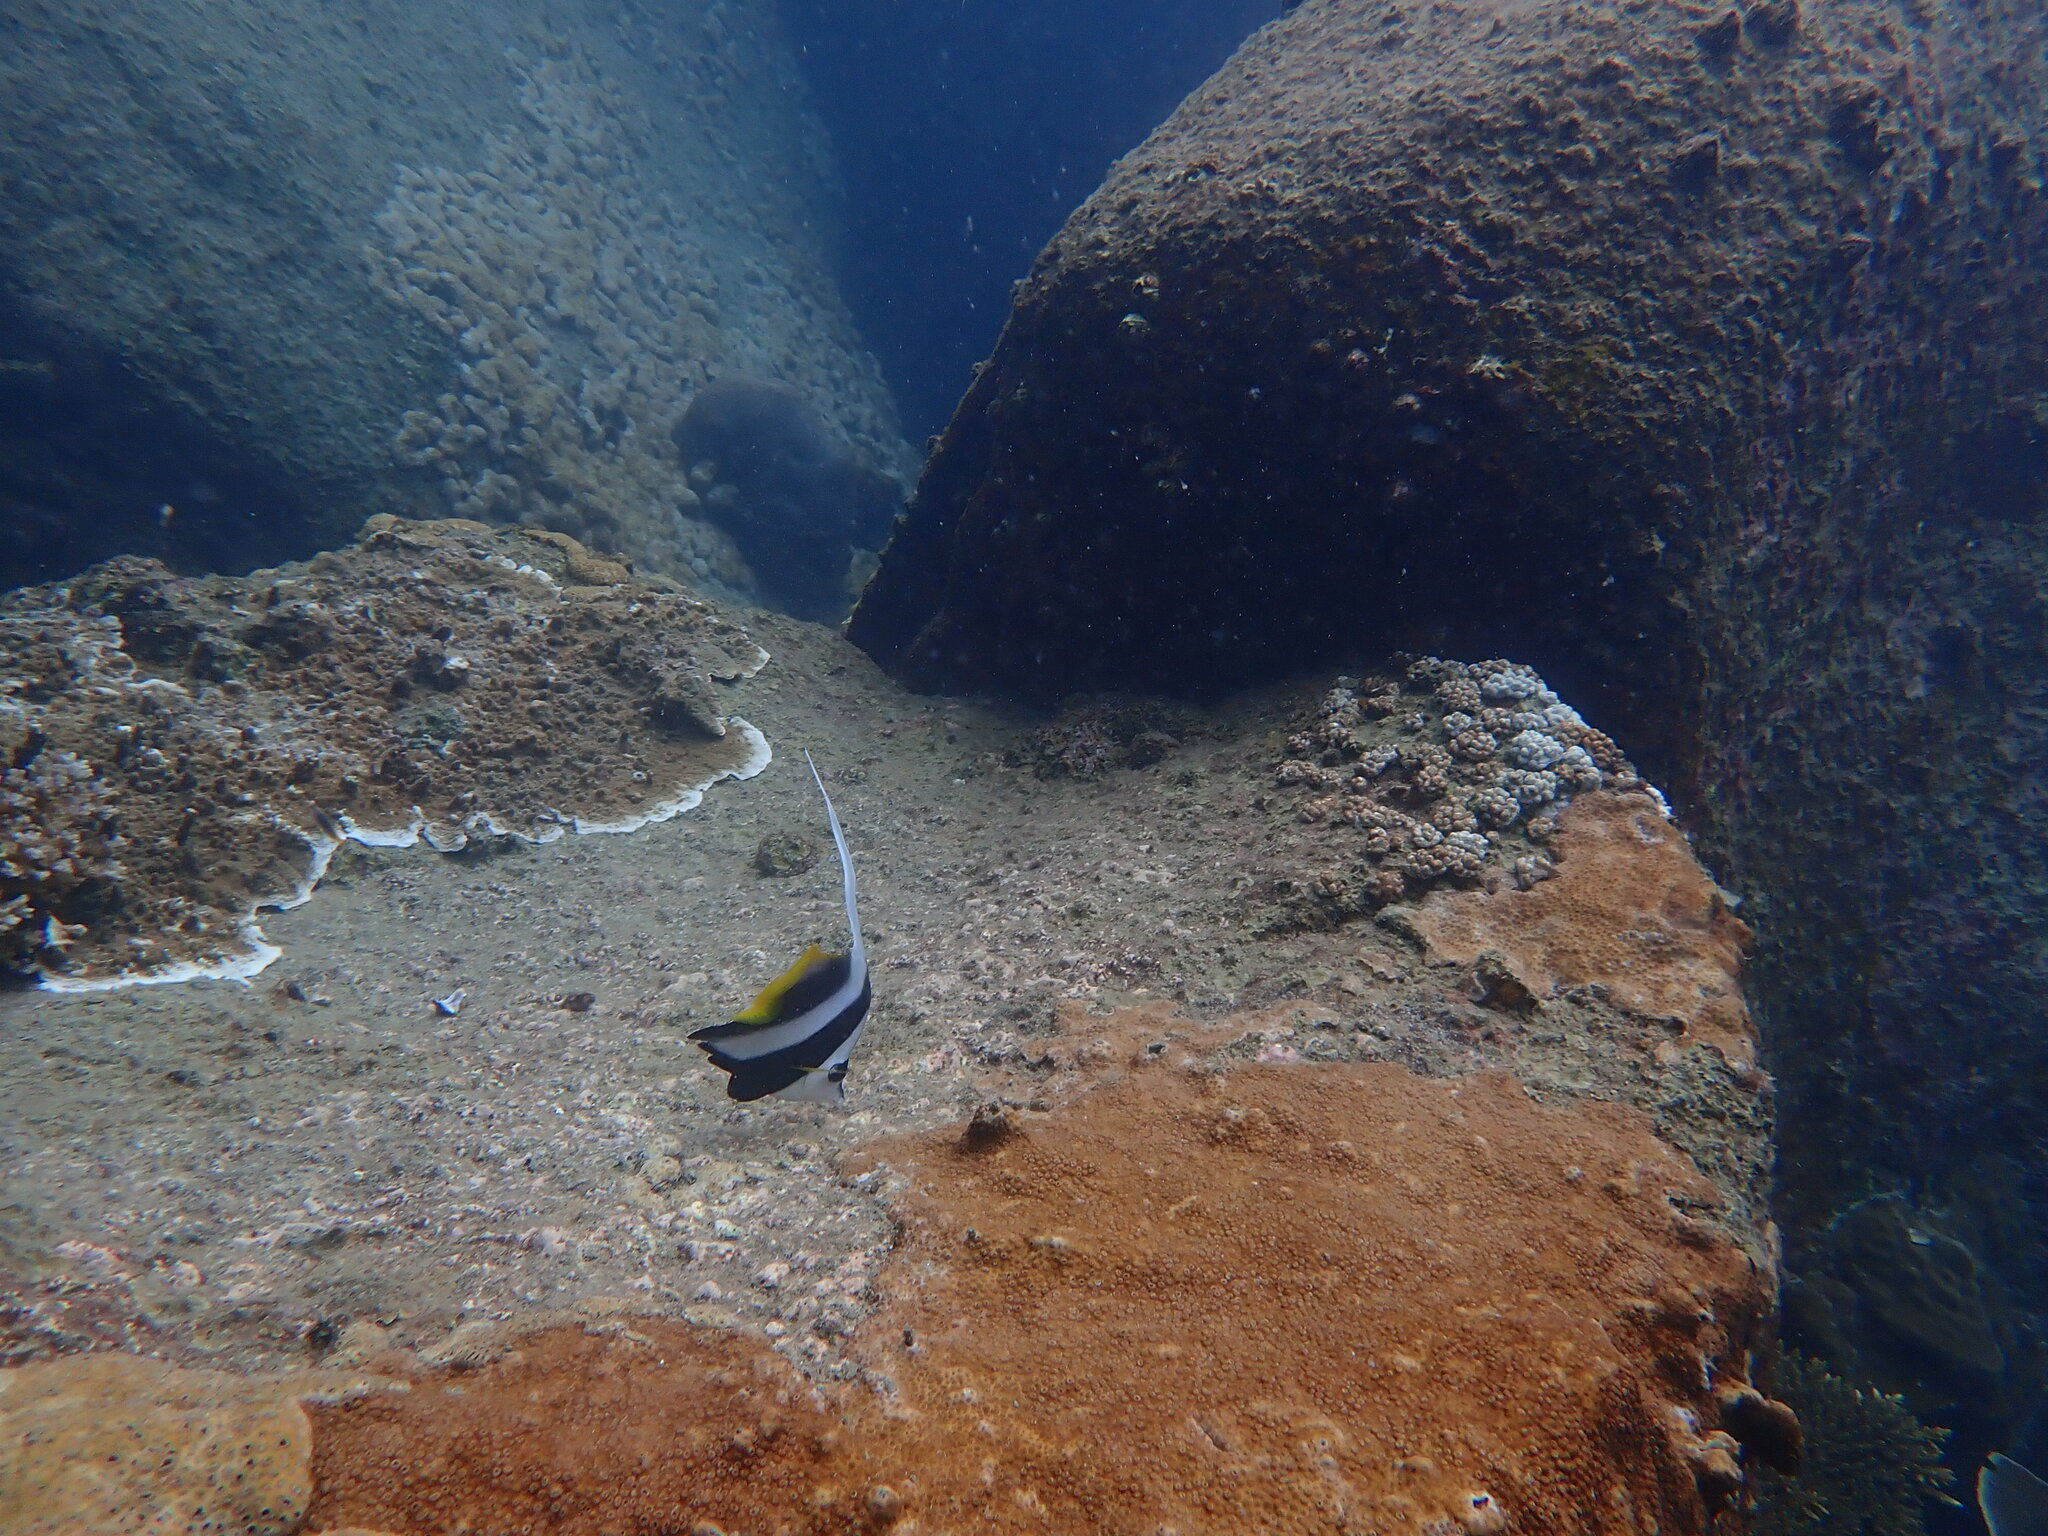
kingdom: Animalia
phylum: Chordata
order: Perciformes
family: Chaetodontidae
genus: Heniochus
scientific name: Heniochus acuminatus
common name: Pennant coralfish
